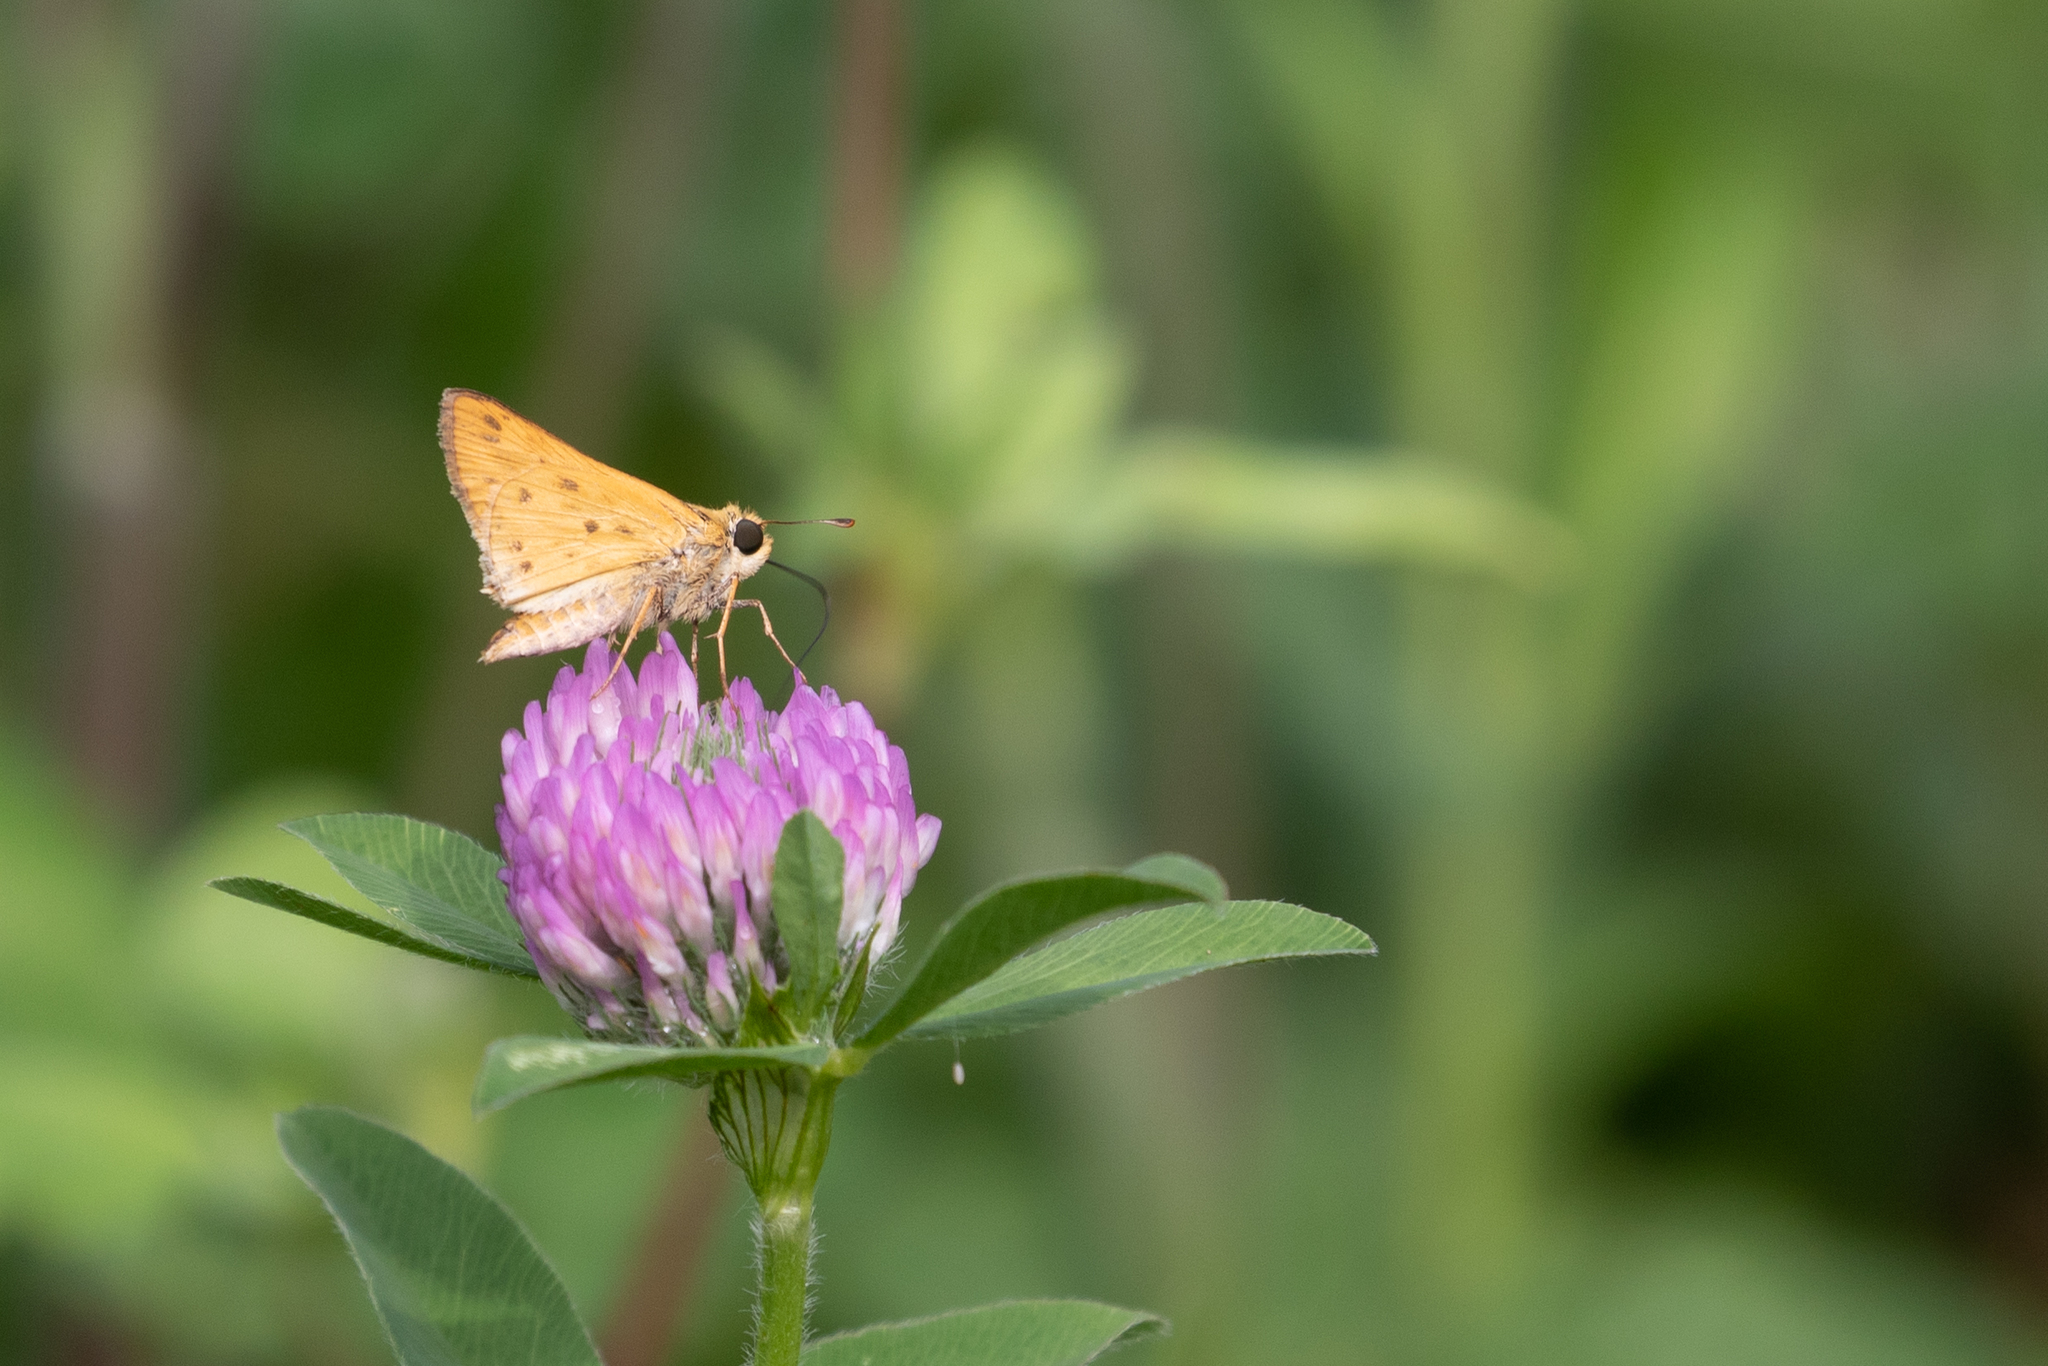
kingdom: Animalia
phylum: Arthropoda
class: Insecta
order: Lepidoptera
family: Hesperiidae
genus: Hylephila
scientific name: Hylephila phyleus
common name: Fiery skipper
